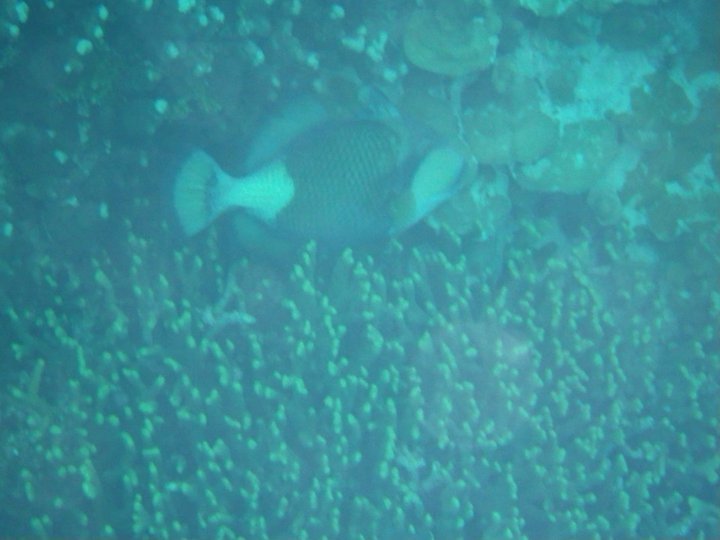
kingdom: Animalia
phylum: Chordata
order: Tetraodontiformes
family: Balistidae
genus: Balistoides
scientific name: Balistoides viridescens
